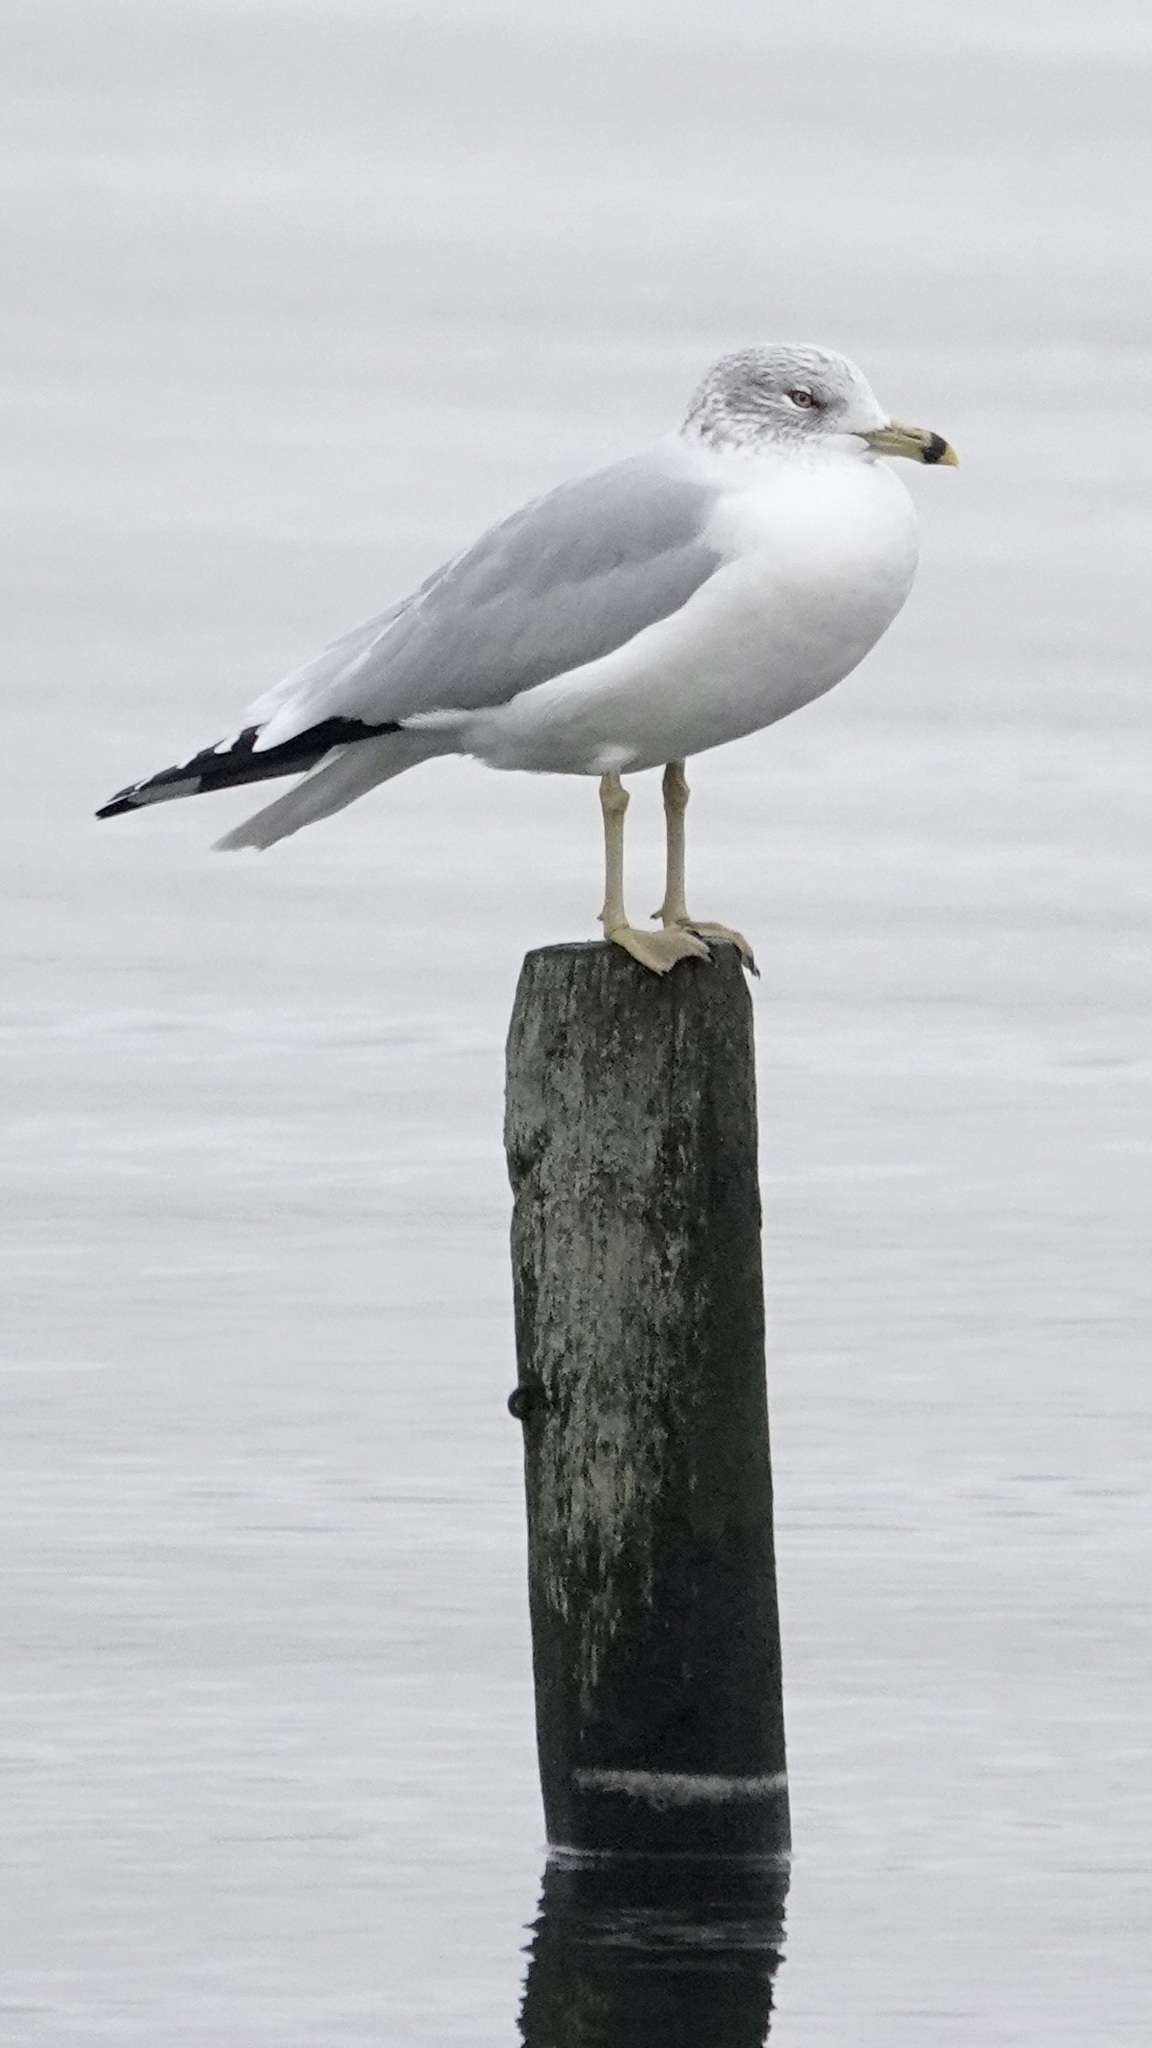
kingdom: Animalia
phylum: Chordata
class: Aves
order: Charadriiformes
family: Laridae
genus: Larus
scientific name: Larus delawarensis
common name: Ring-billed gull
